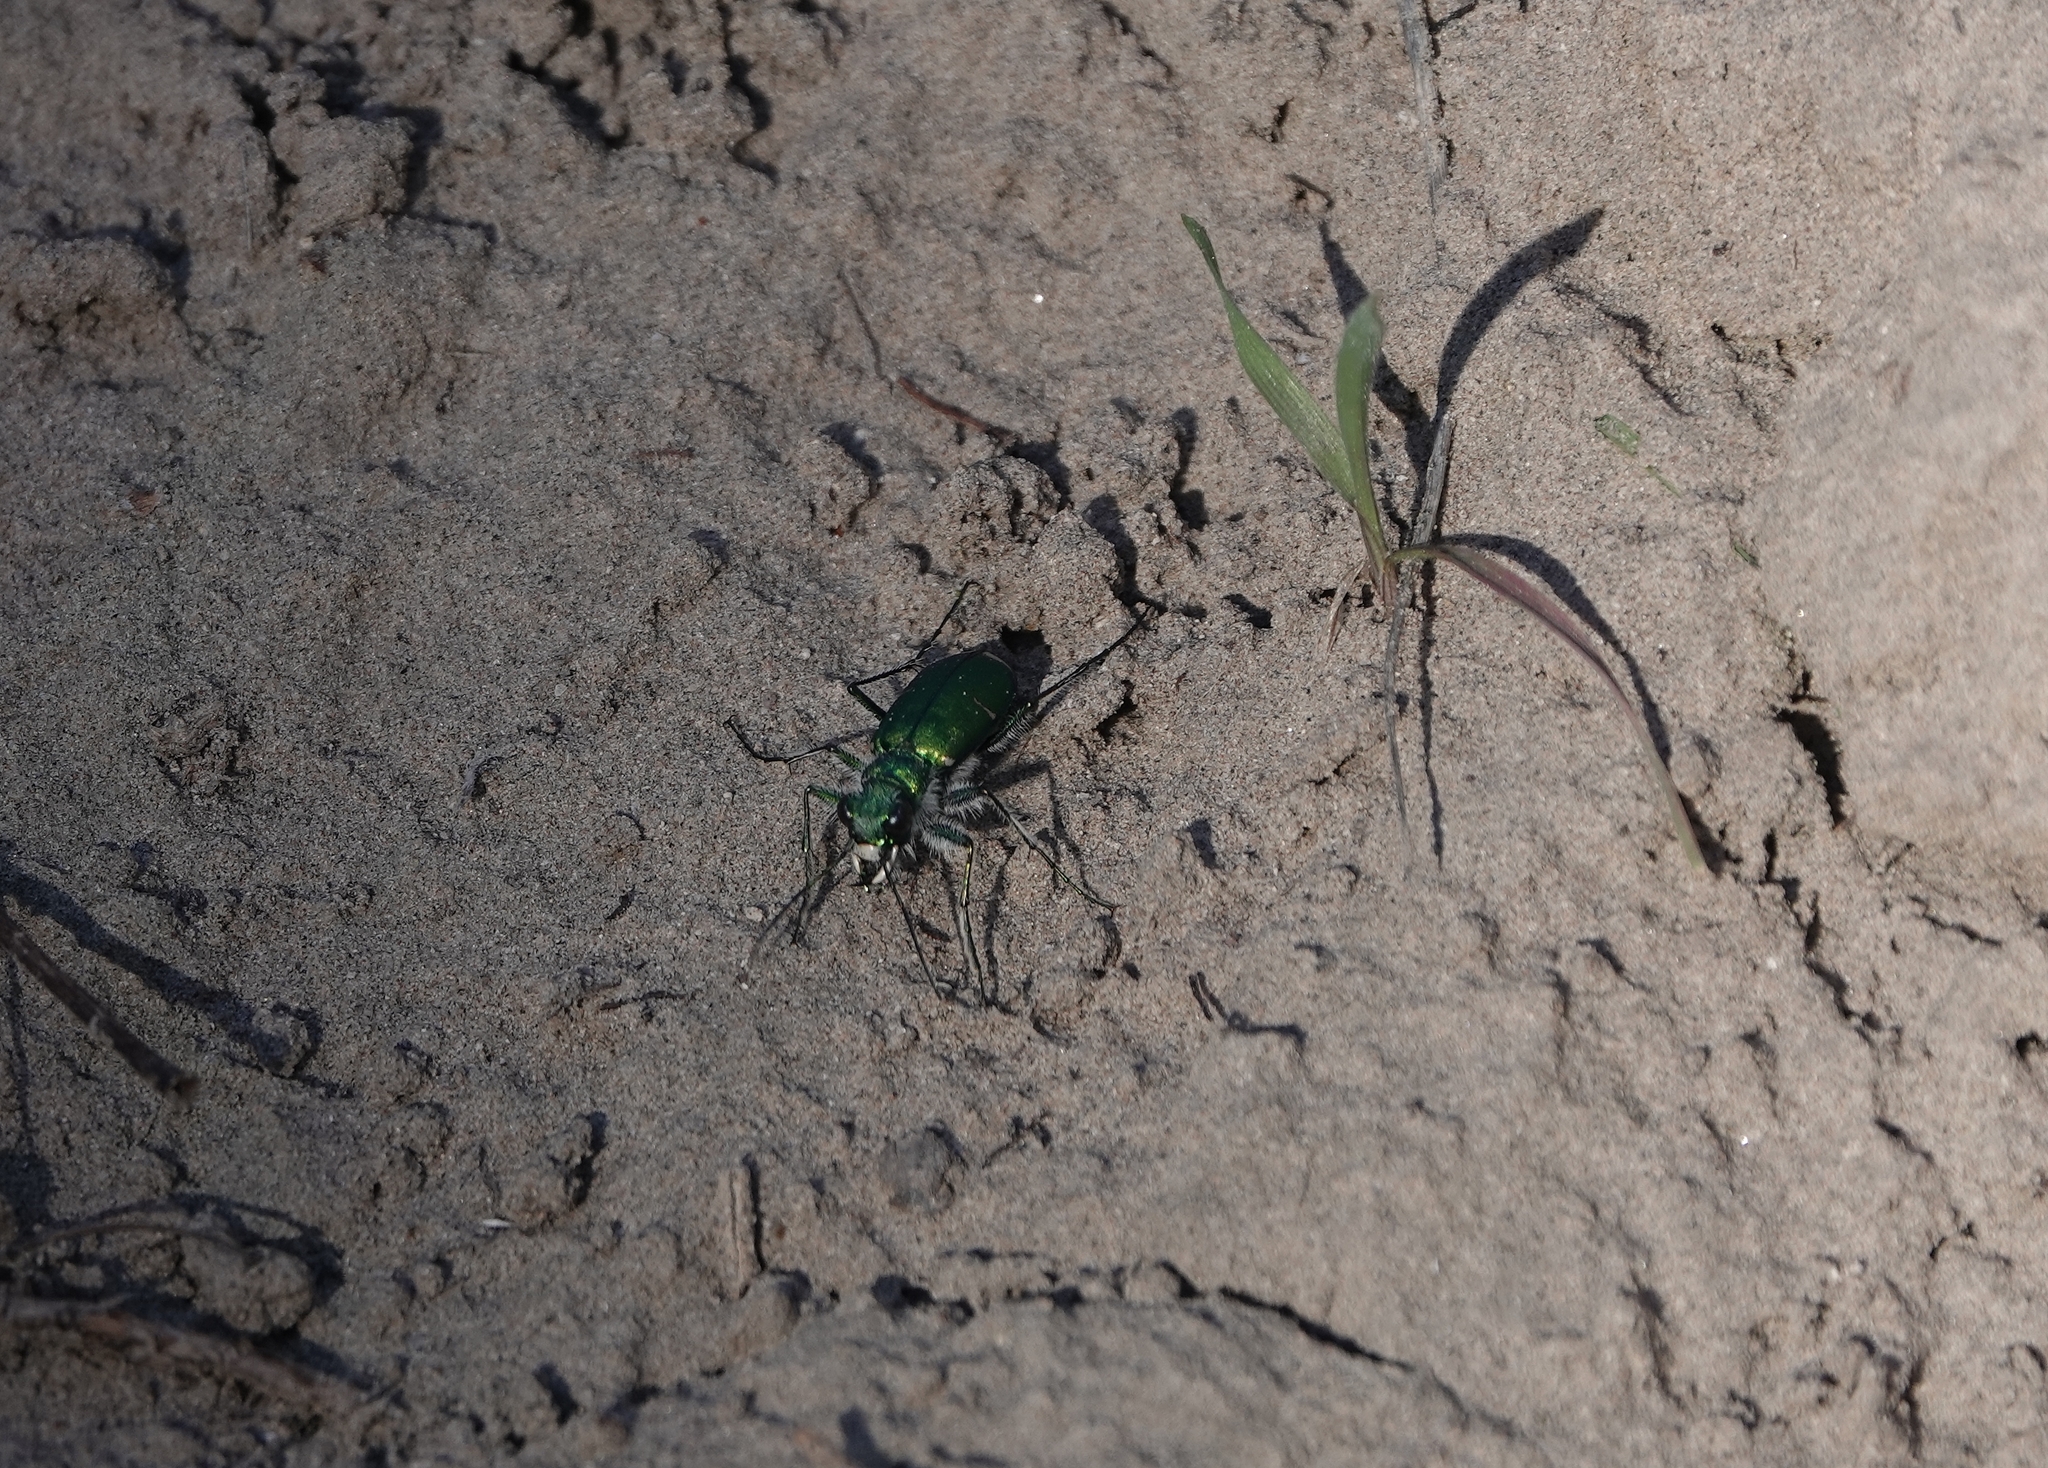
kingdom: Animalia
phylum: Arthropoda
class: Insecta
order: Coleoptera
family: Carabidae
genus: Cicindela
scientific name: Cicindela denverensis
